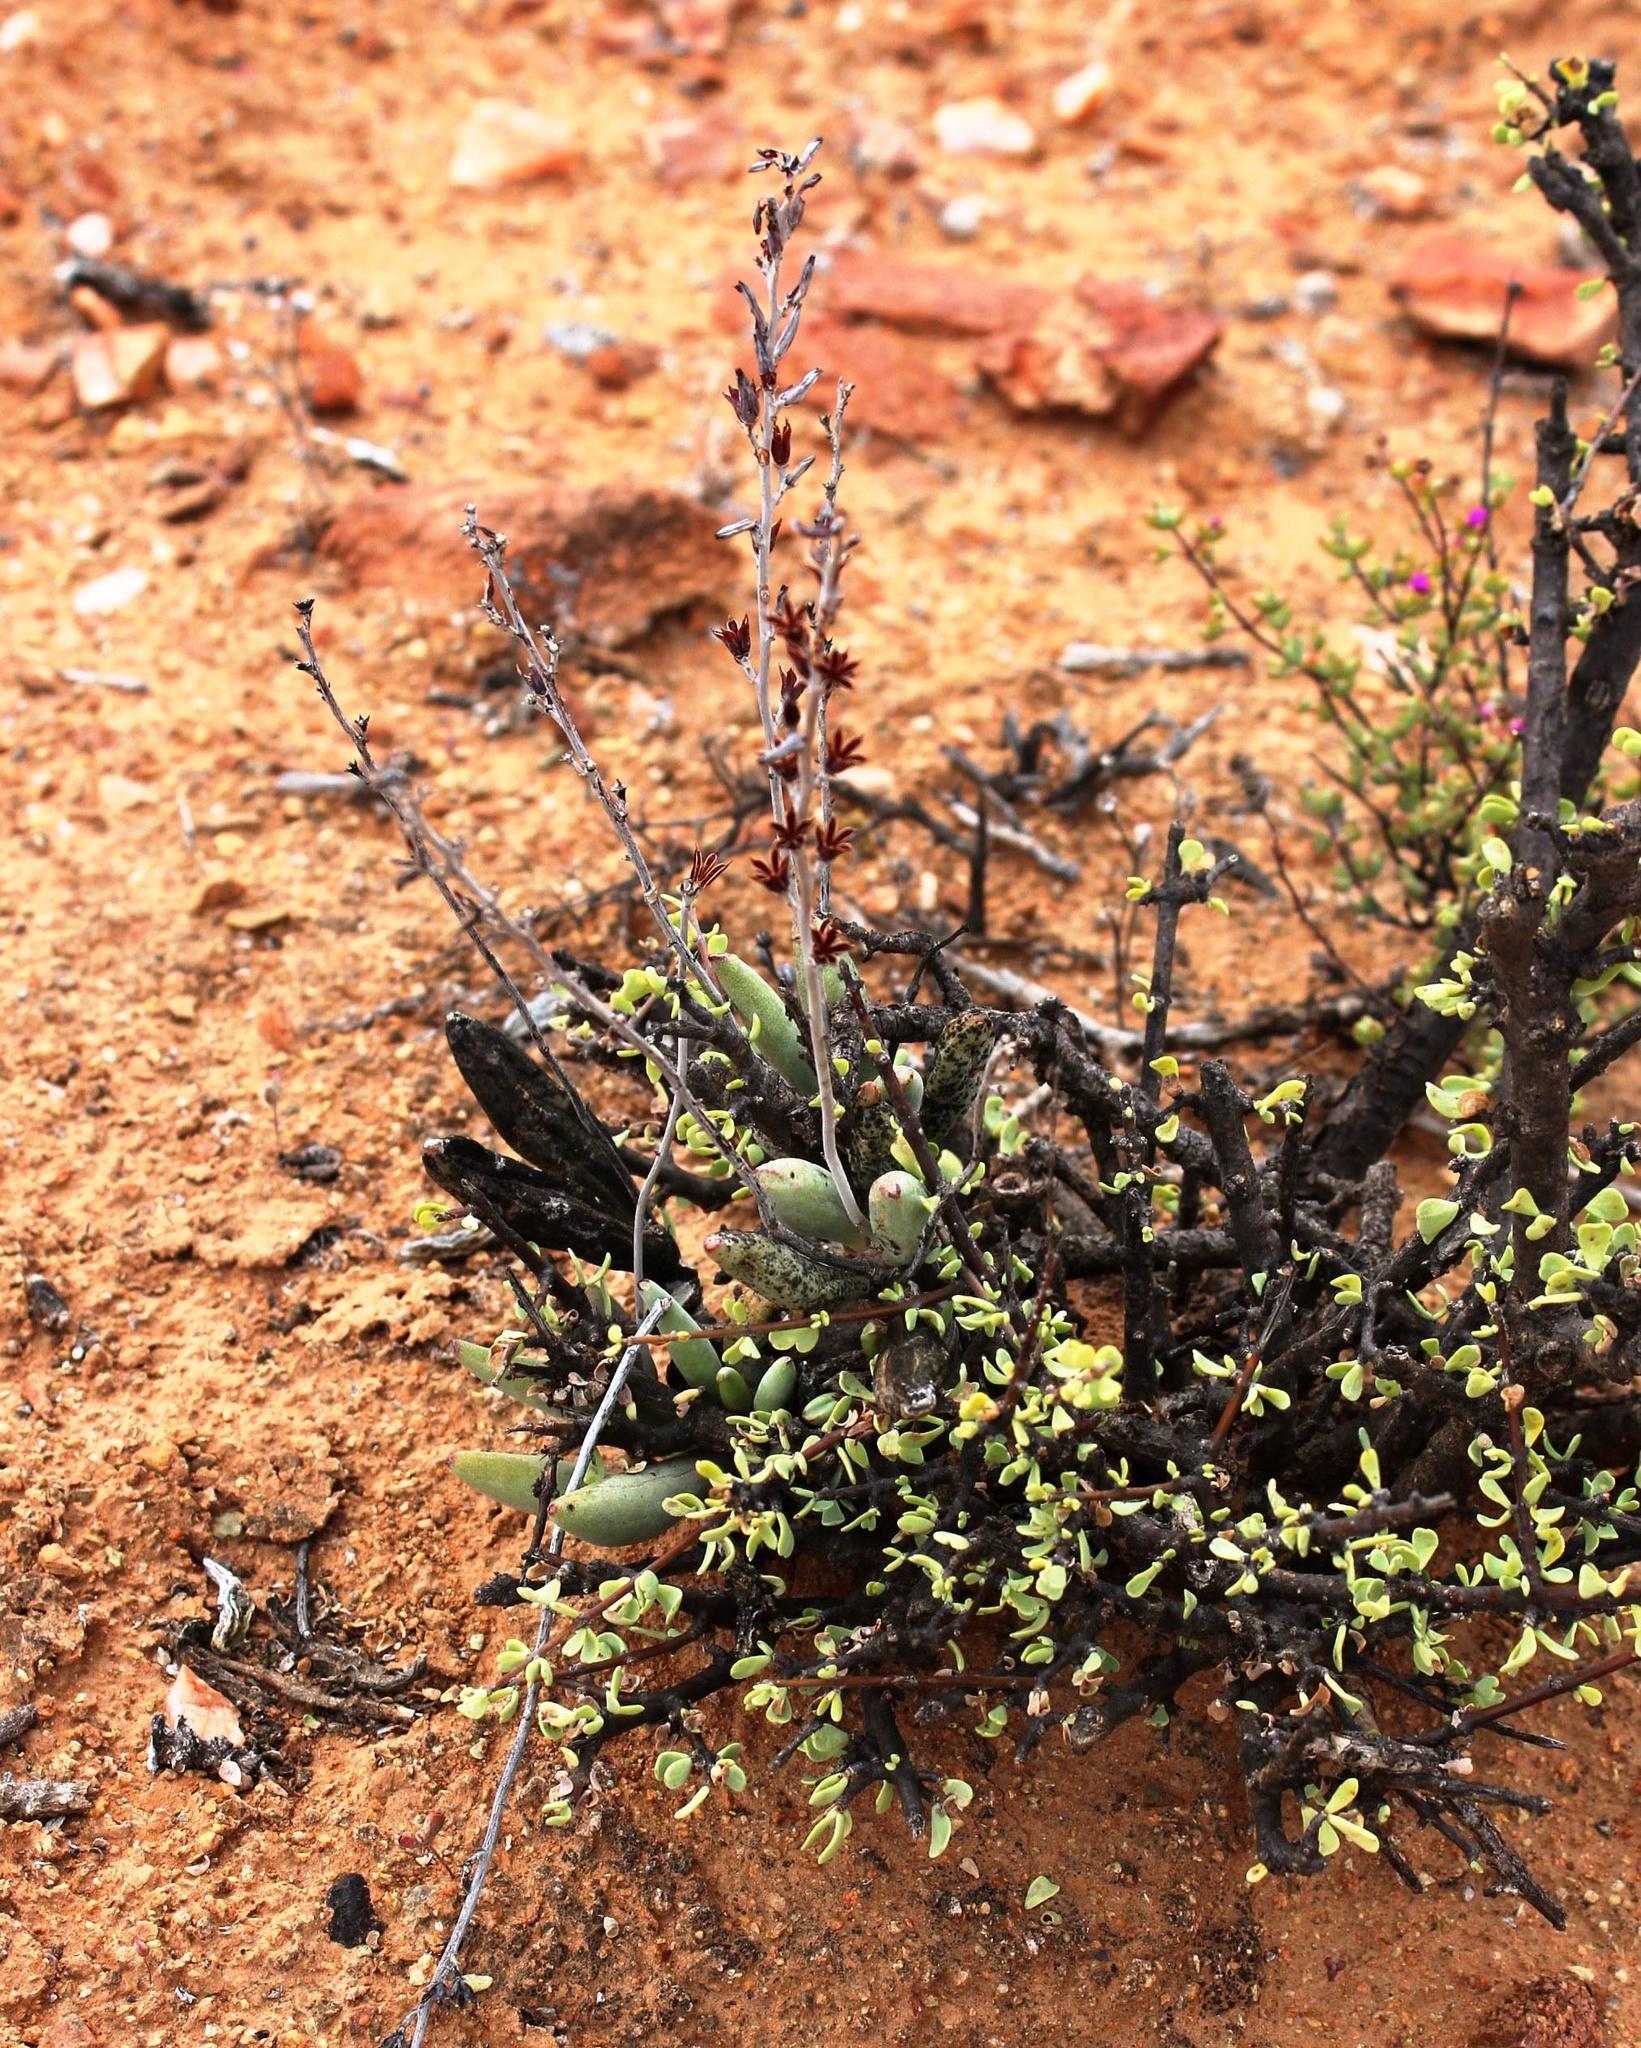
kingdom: Plantae
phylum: Tracheophyta
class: Magnoliopsida
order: Saxifragales
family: Crassulaceae
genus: Adromischus
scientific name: Adromischus marianiae
